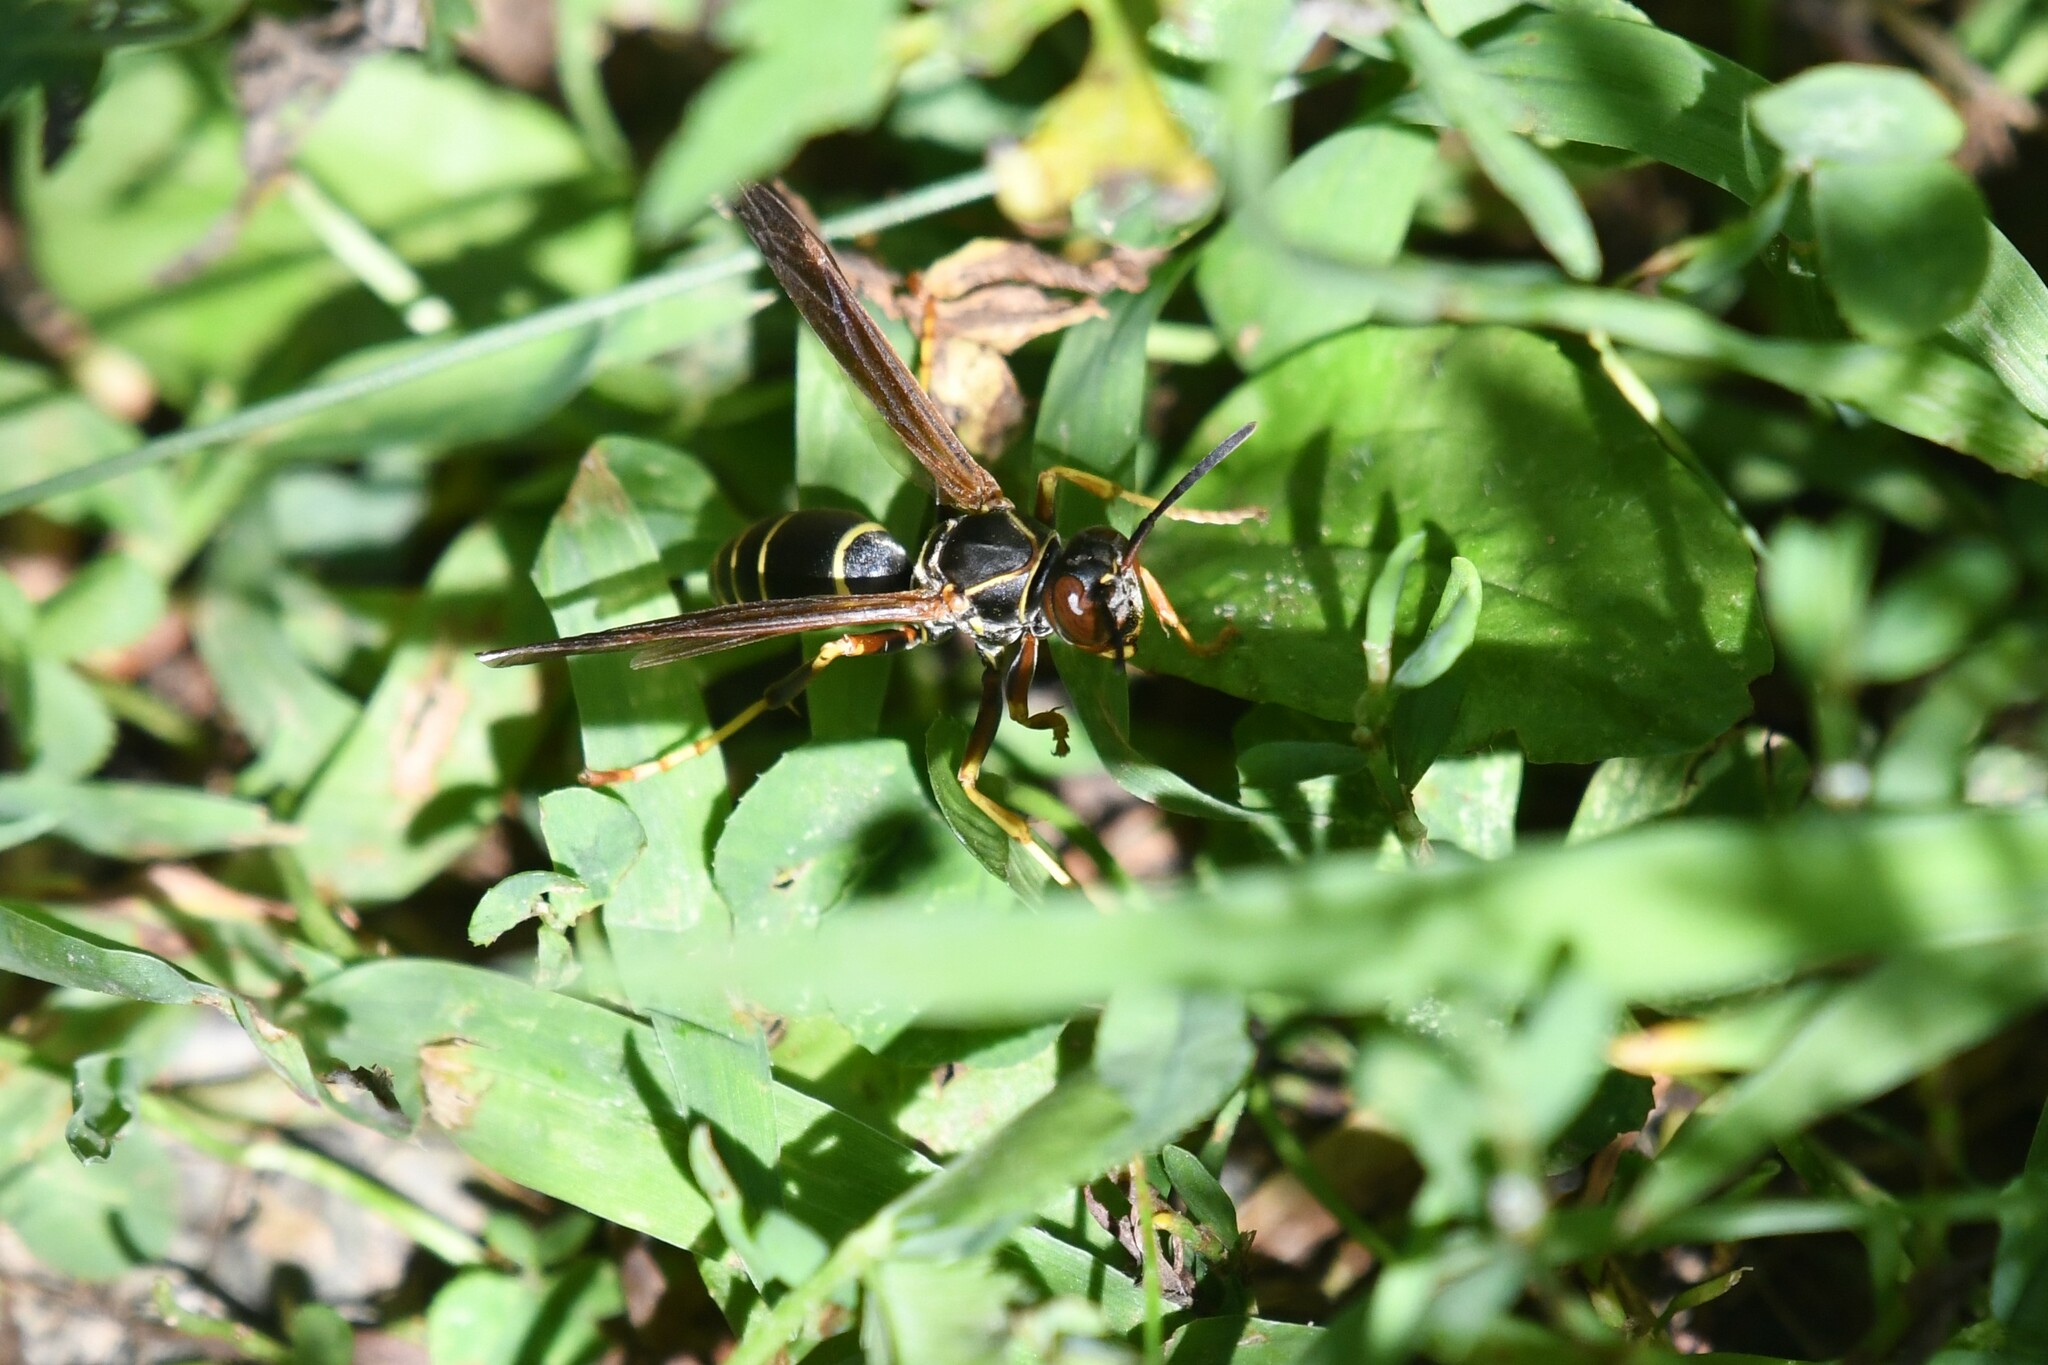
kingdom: Animalia
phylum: Arthropoda
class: Insecta
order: Hymenoptera
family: Eumenidae
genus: Polistes
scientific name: Polistes fuscatus
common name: Dark paper wasp
